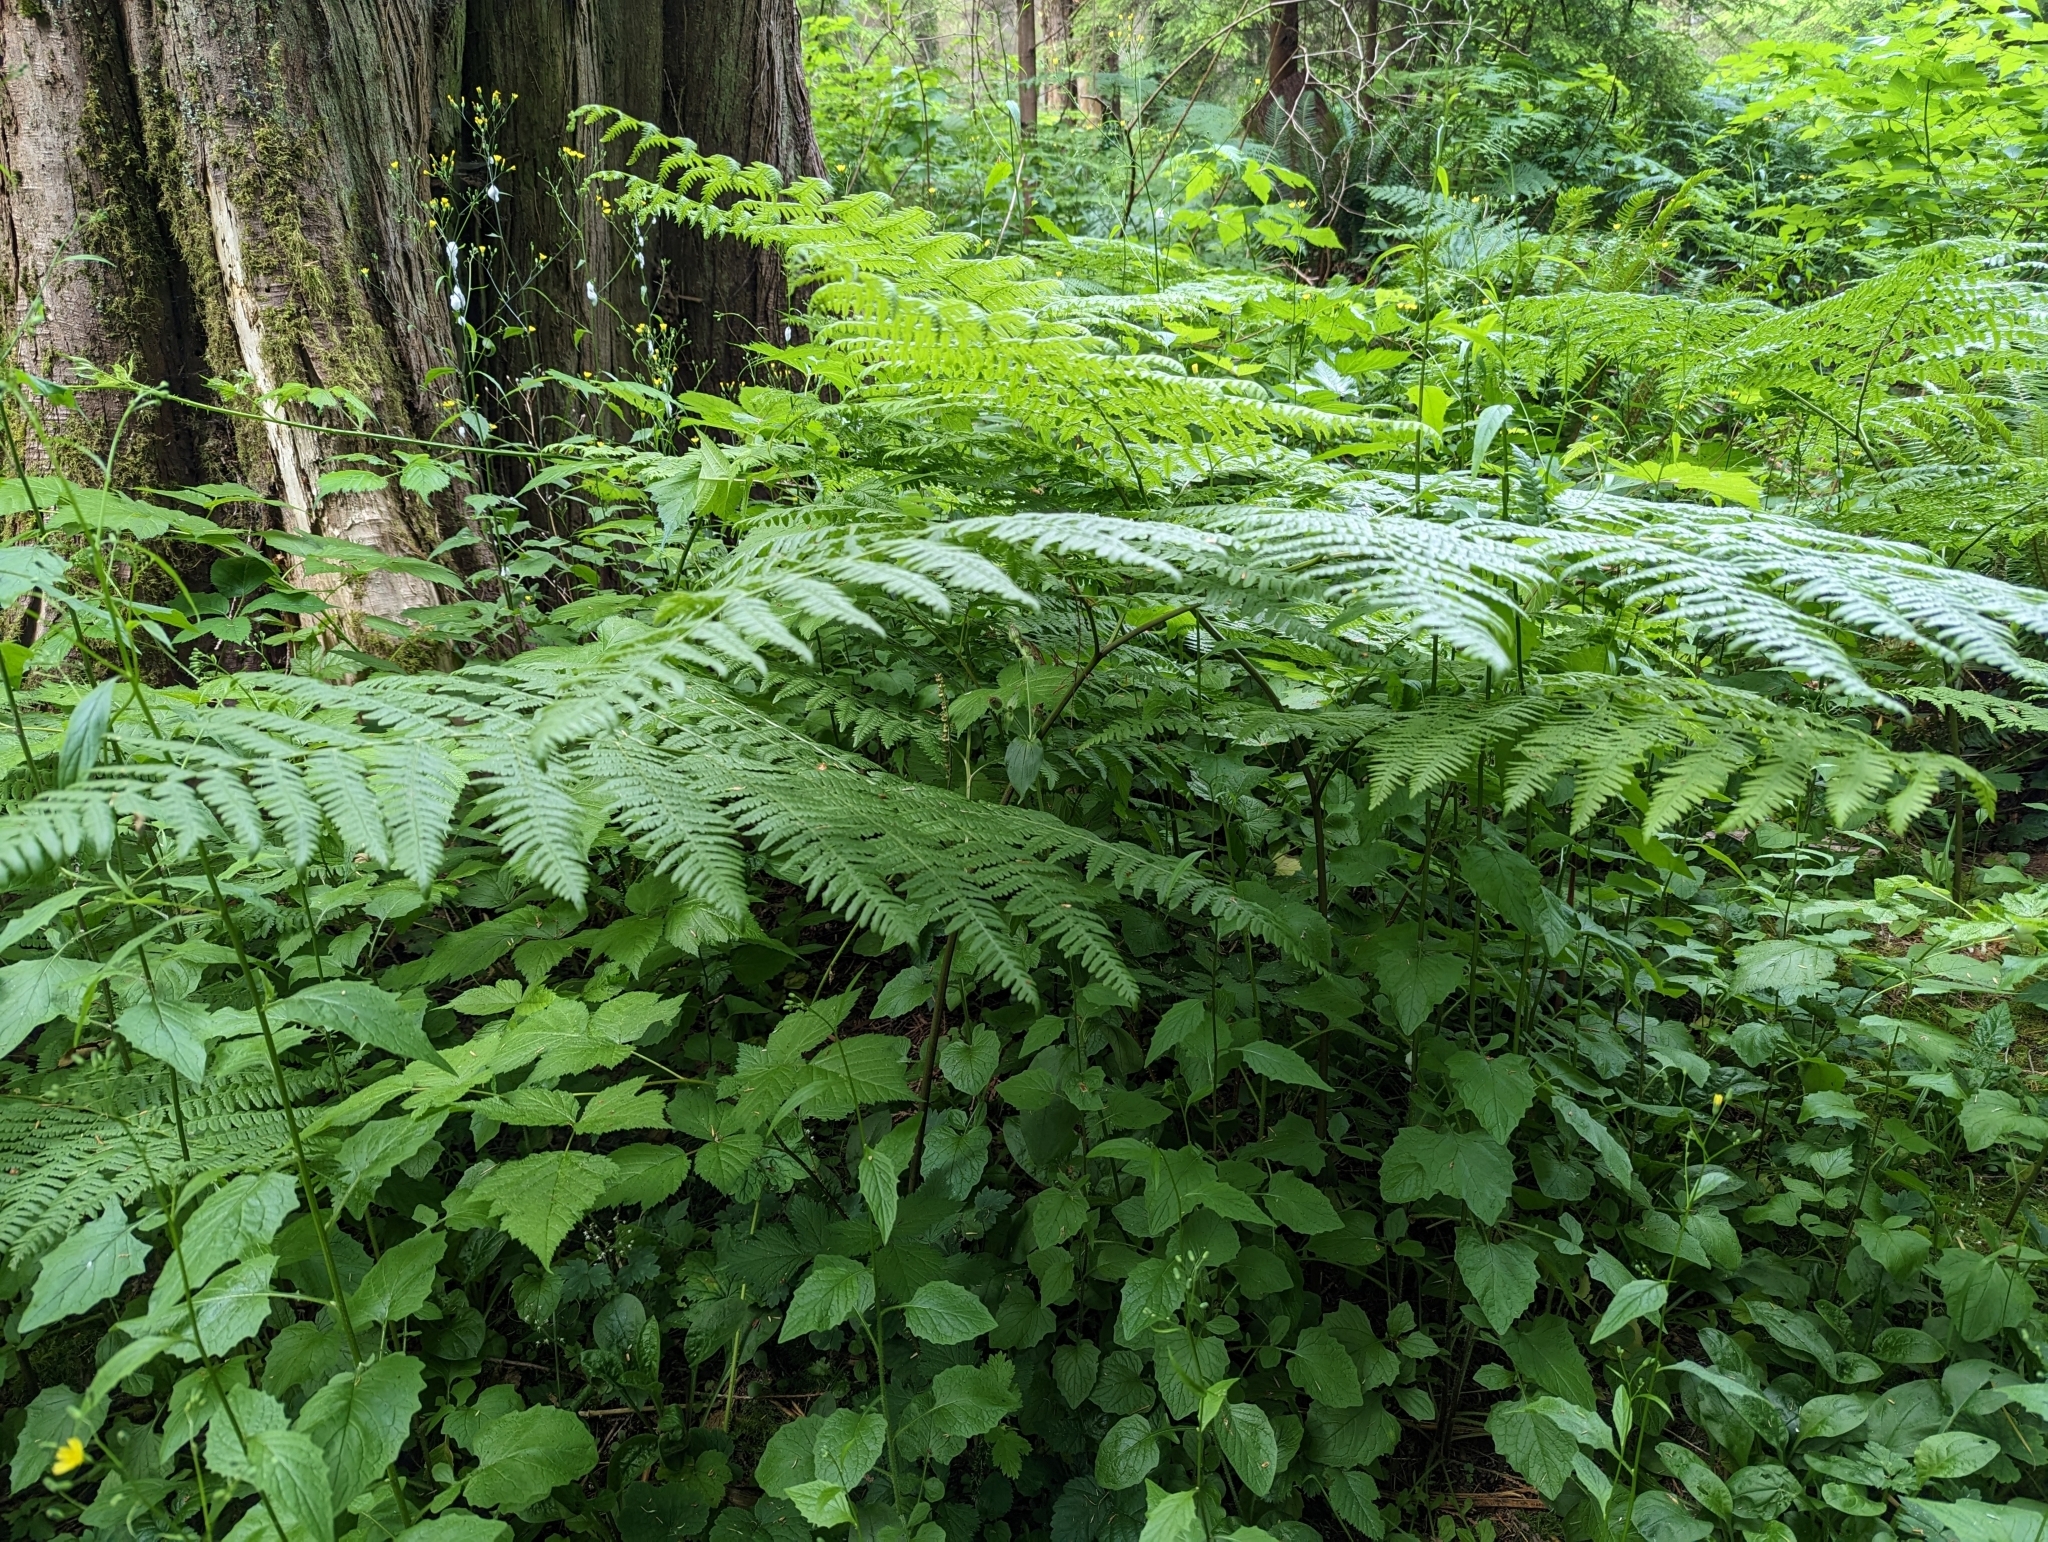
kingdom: Plantae
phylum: Tracheophyta
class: Polypodiopsida
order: Polypodiales
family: Dennstaedtiaceae
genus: Pteridium
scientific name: Pteridium aquilinum
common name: Bracken
